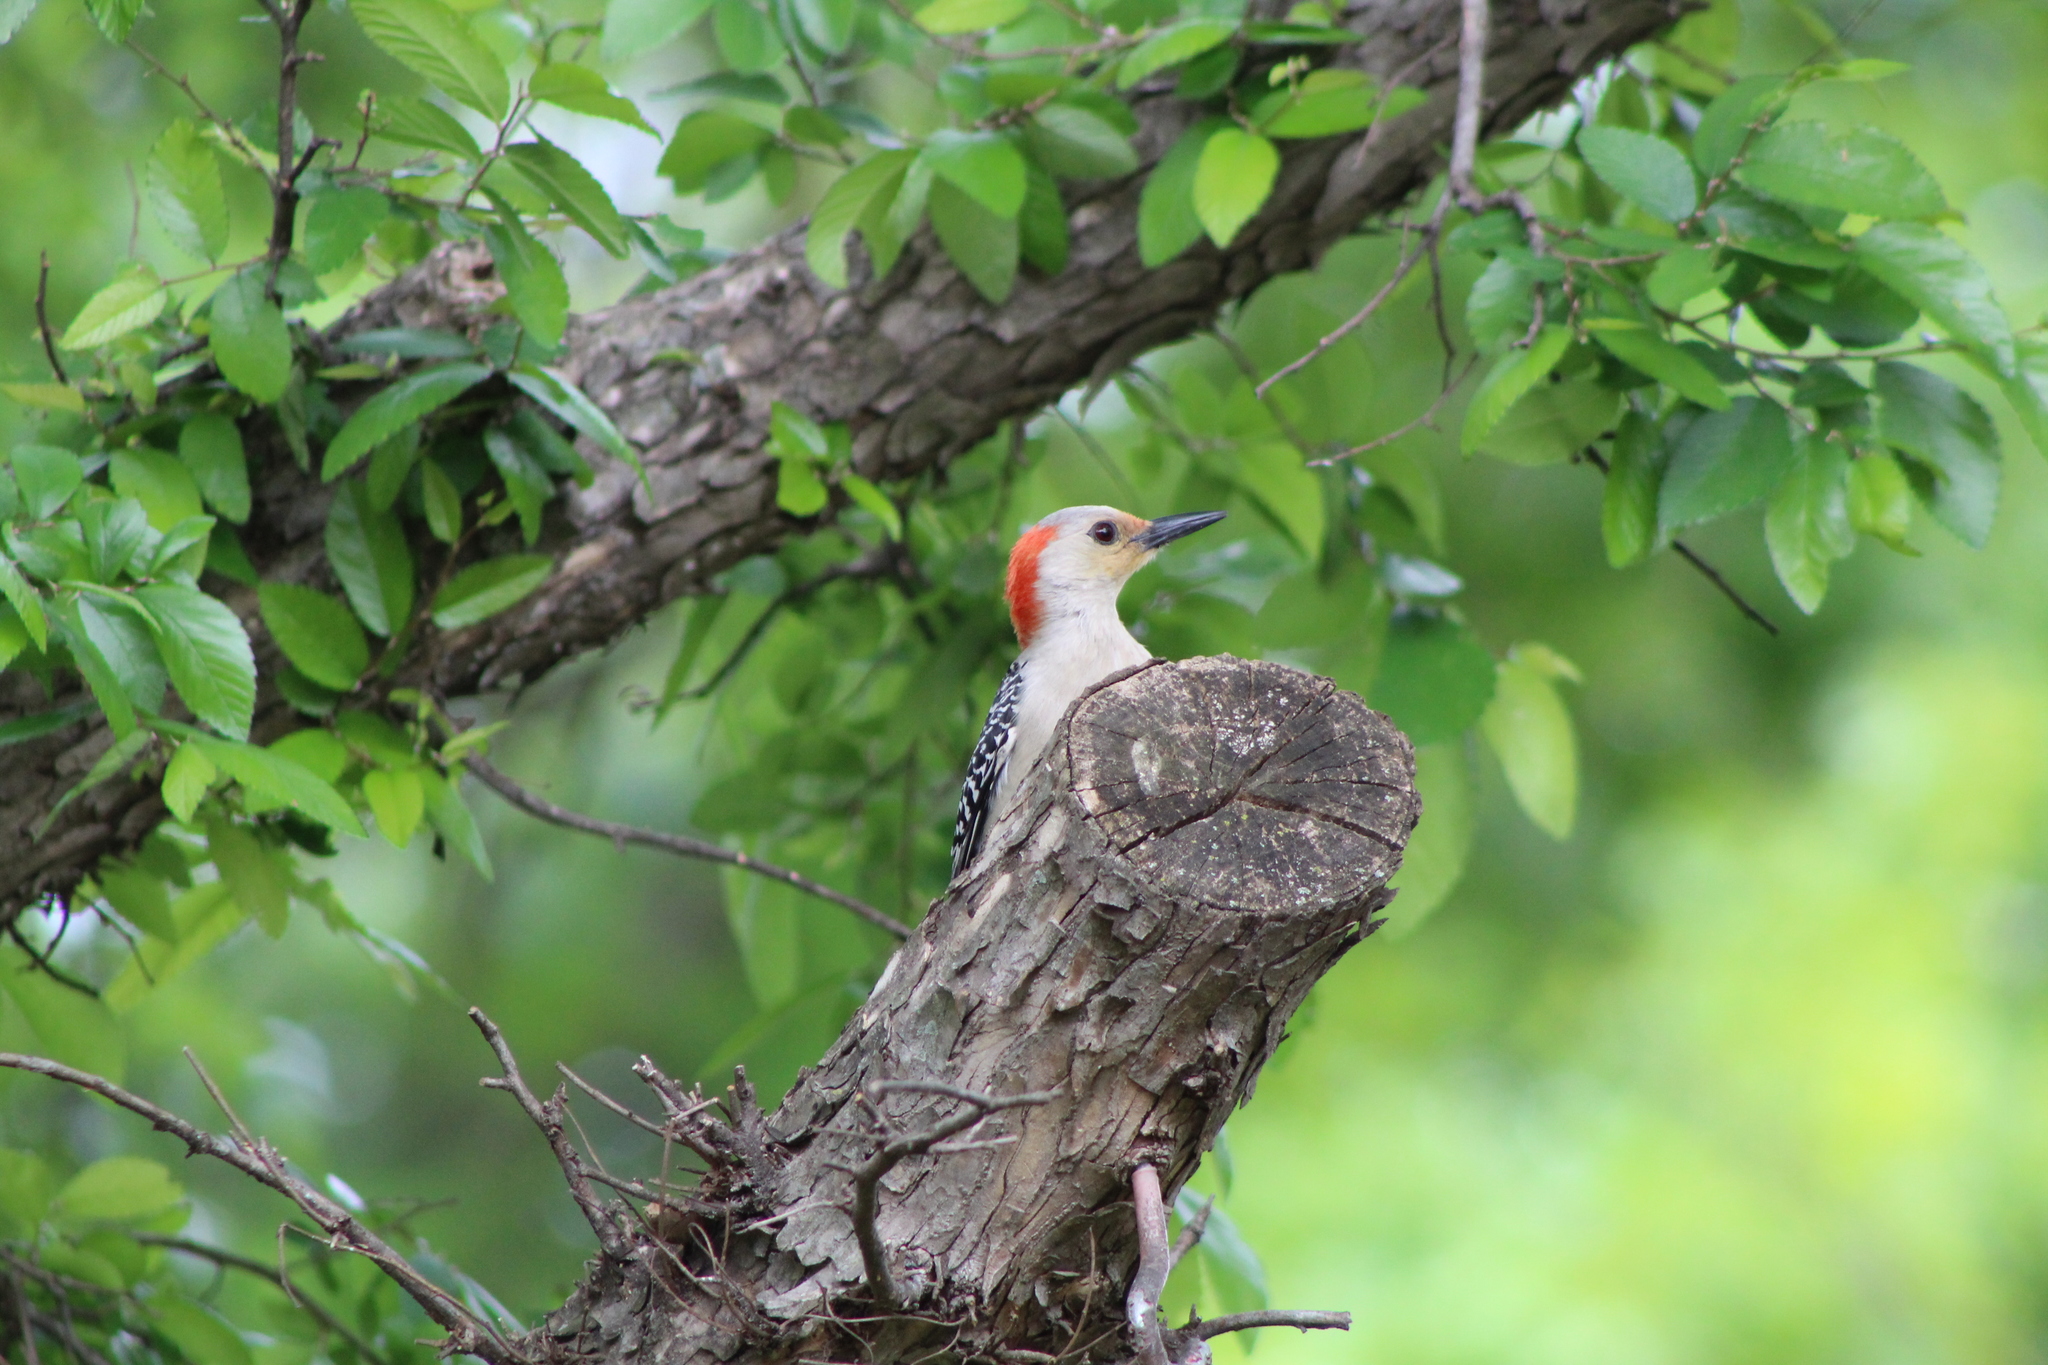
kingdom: Animalia
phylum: Chordata
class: Aves
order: Piciformes
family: Picidae
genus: Melanerpes
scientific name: Melanerpes carolinus
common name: Red-bellied woodpecker
